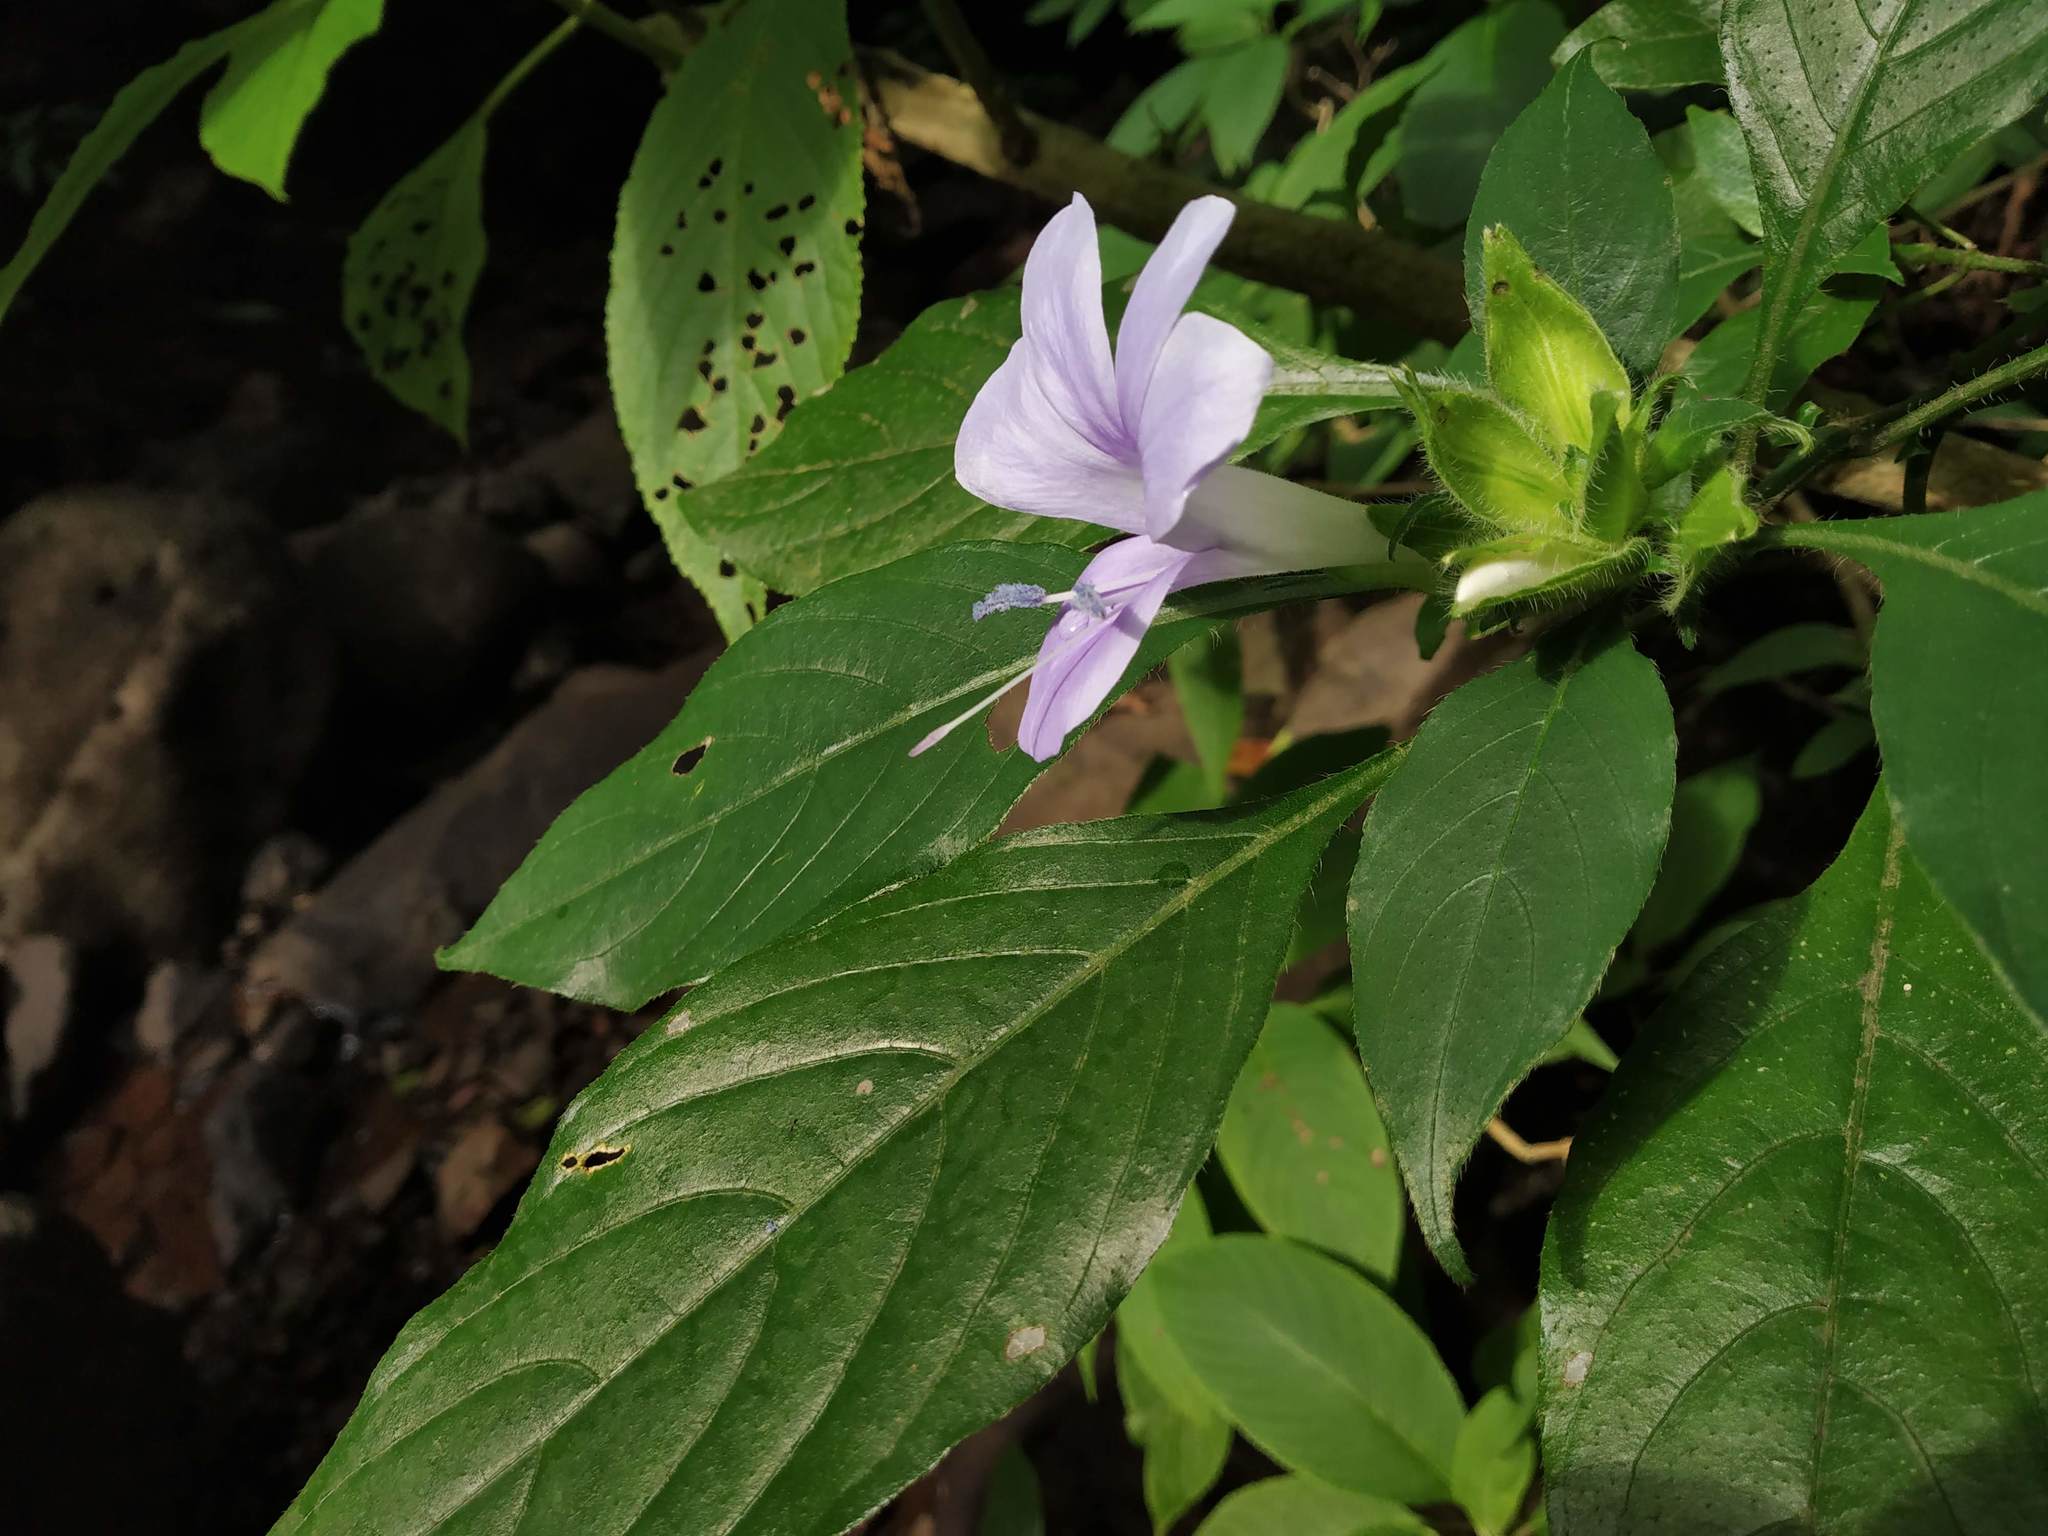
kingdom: Plantae
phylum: Tracheophyta
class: Magnoliopsida
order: Lamiales
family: Acanthaceae
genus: Barleria
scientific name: Barleria terminalis
